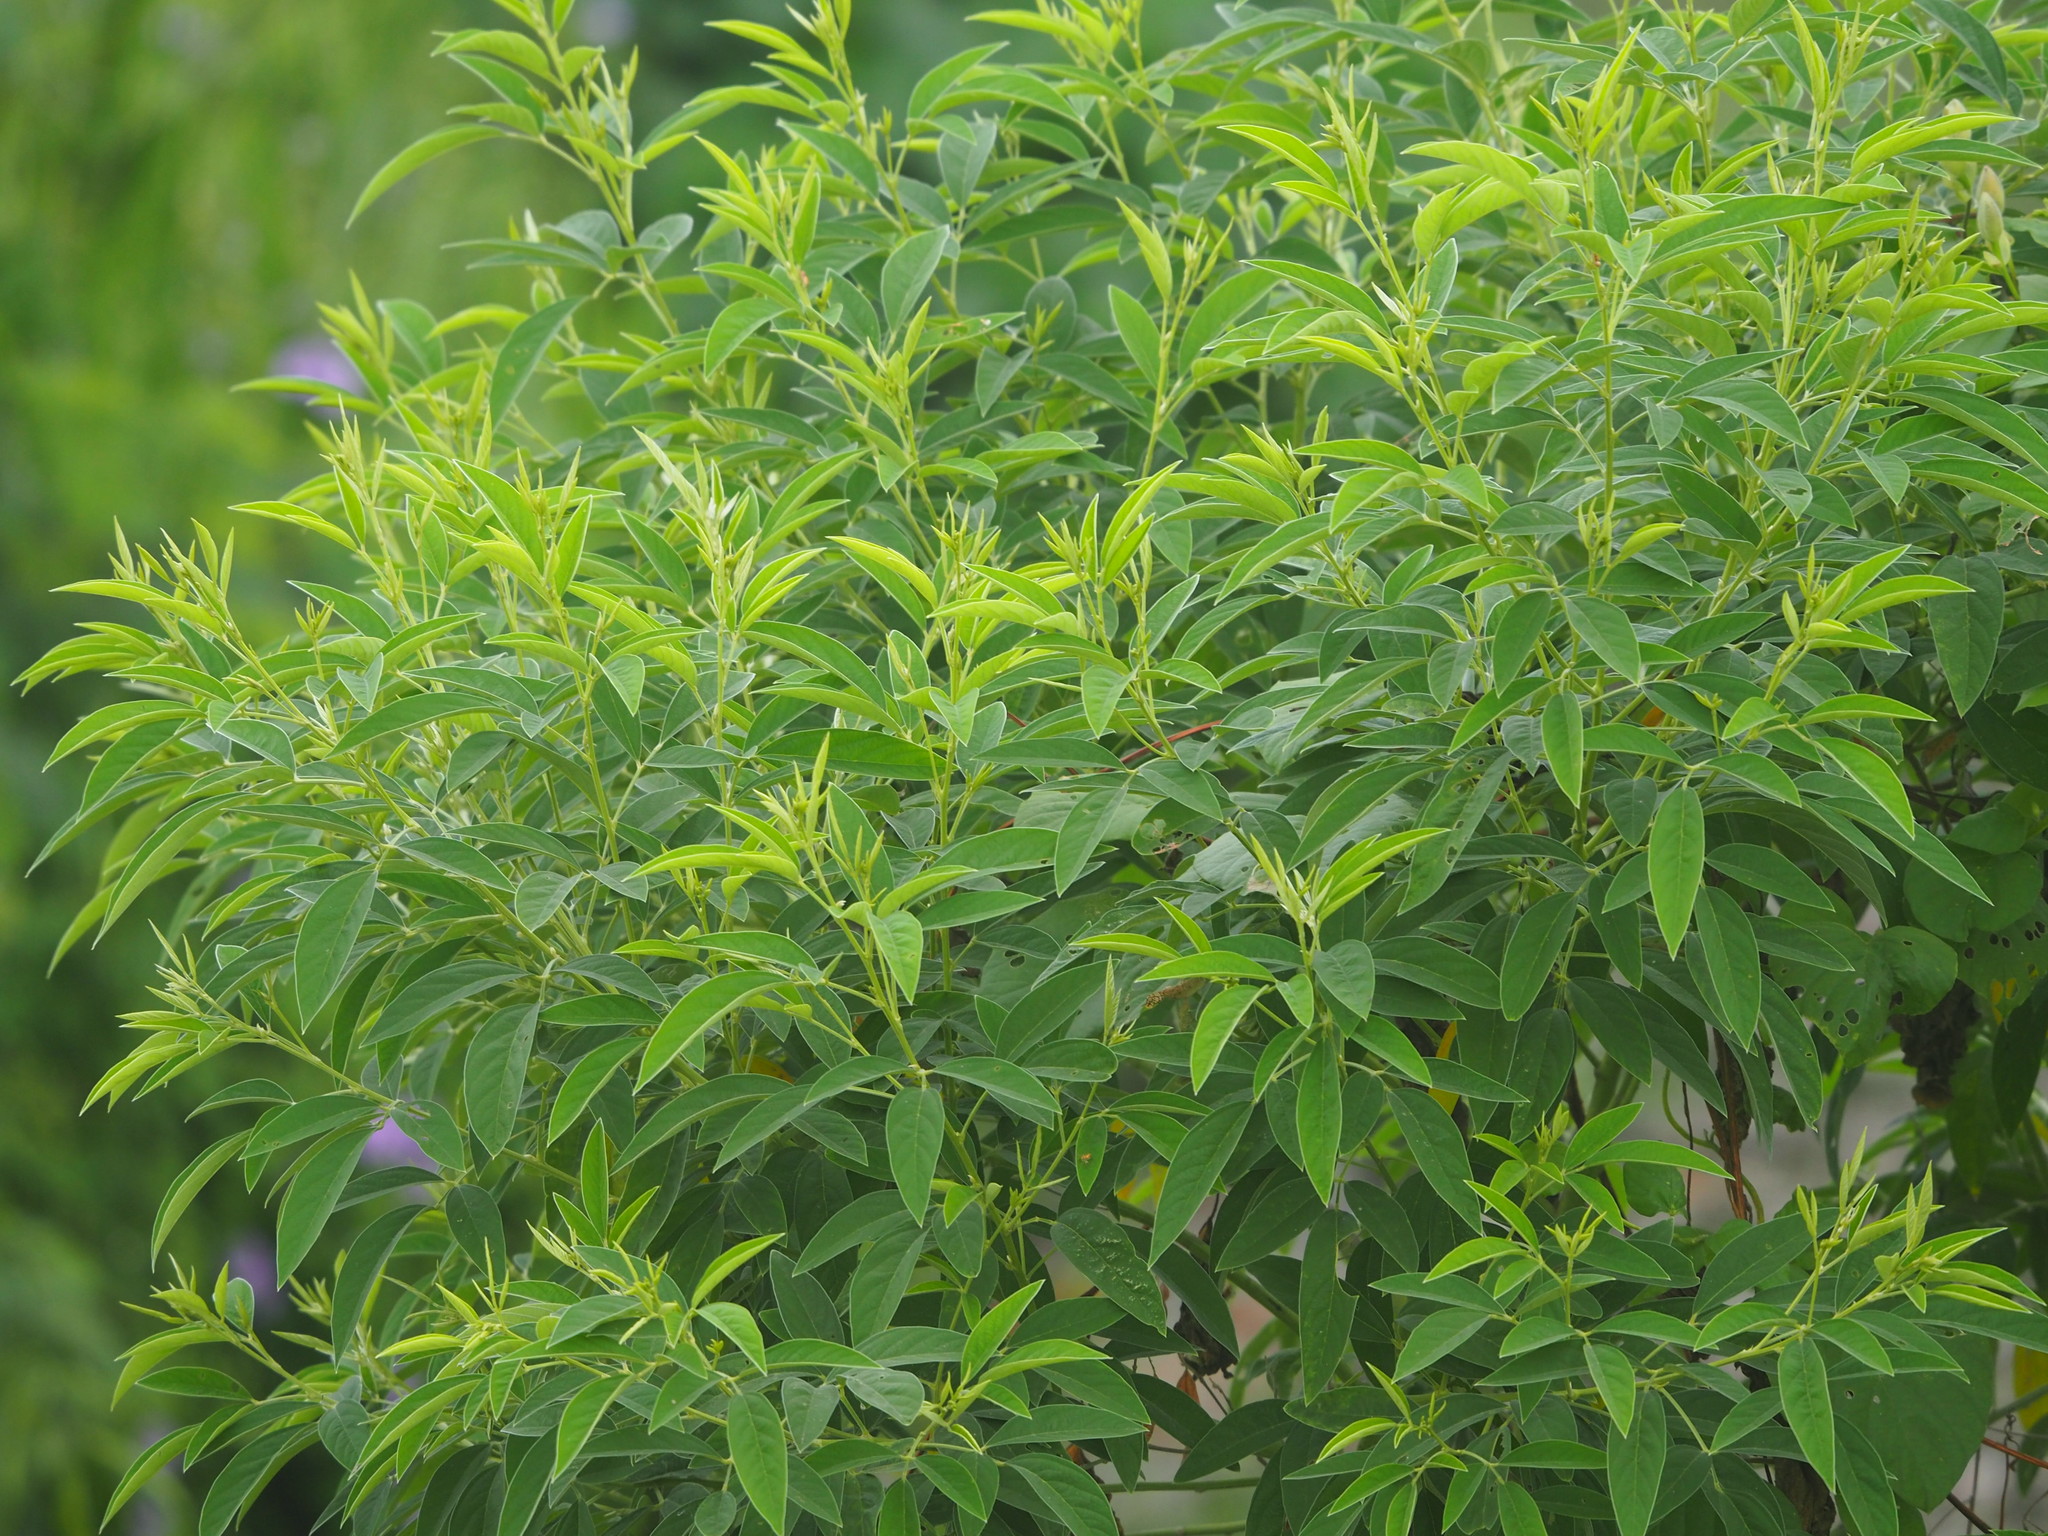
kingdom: Plantae
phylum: Tracheophyta
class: Magnoliopsida
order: Fabales
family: Fabaceae
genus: Cajanus
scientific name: Cajanus cajan
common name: Pigeonpea
